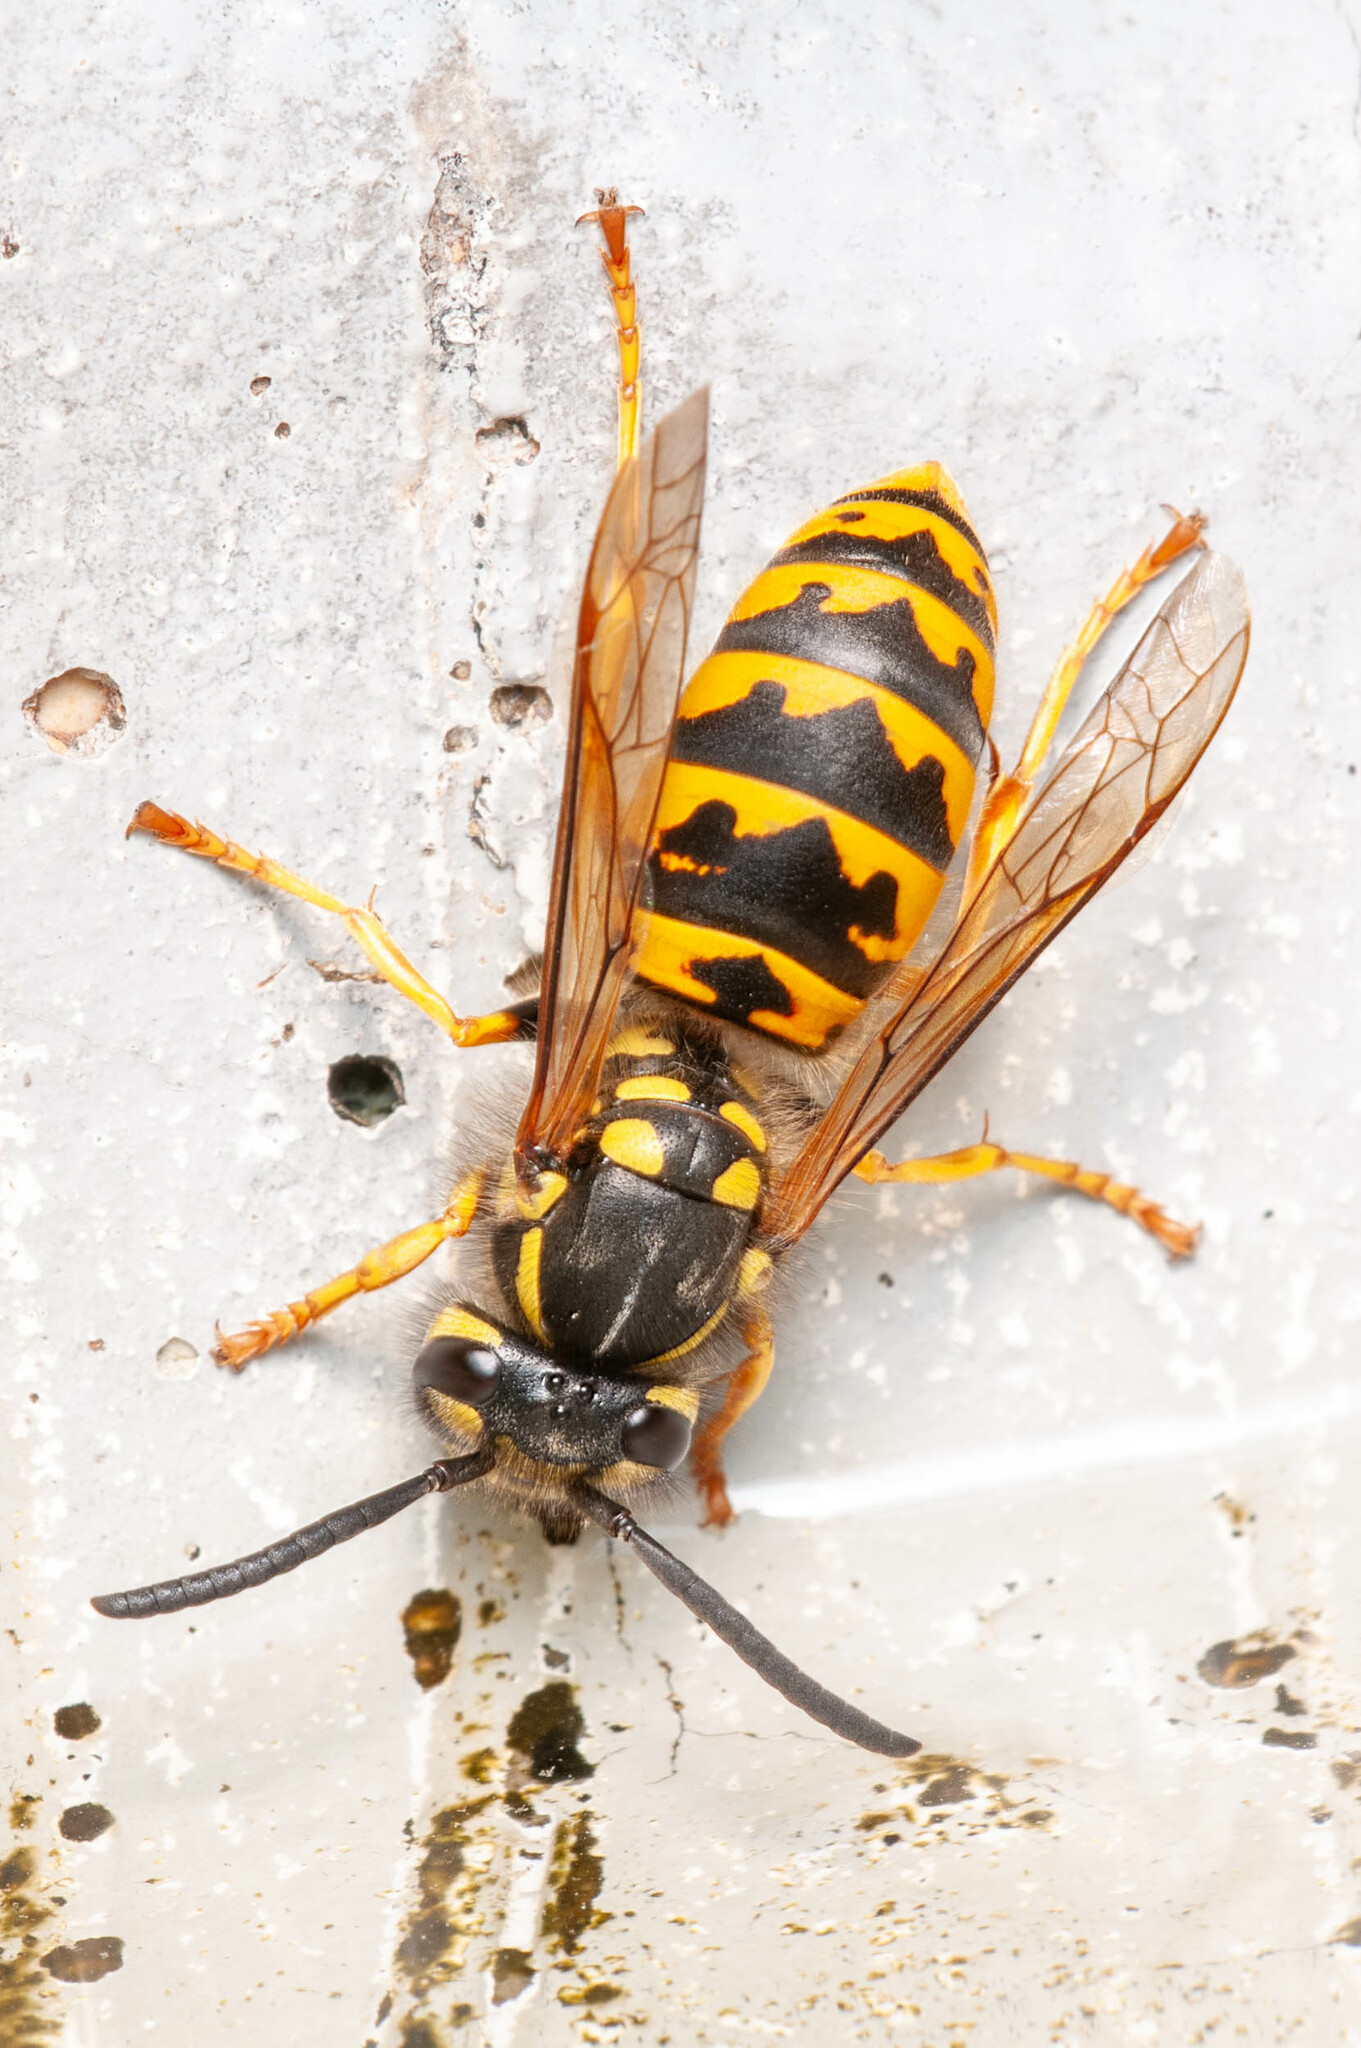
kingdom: Animalia
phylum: Arthropoda
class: Insecta
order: Hymenoptera
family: Vespidae
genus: Vespula
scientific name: Vespula germanica
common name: German wasp
